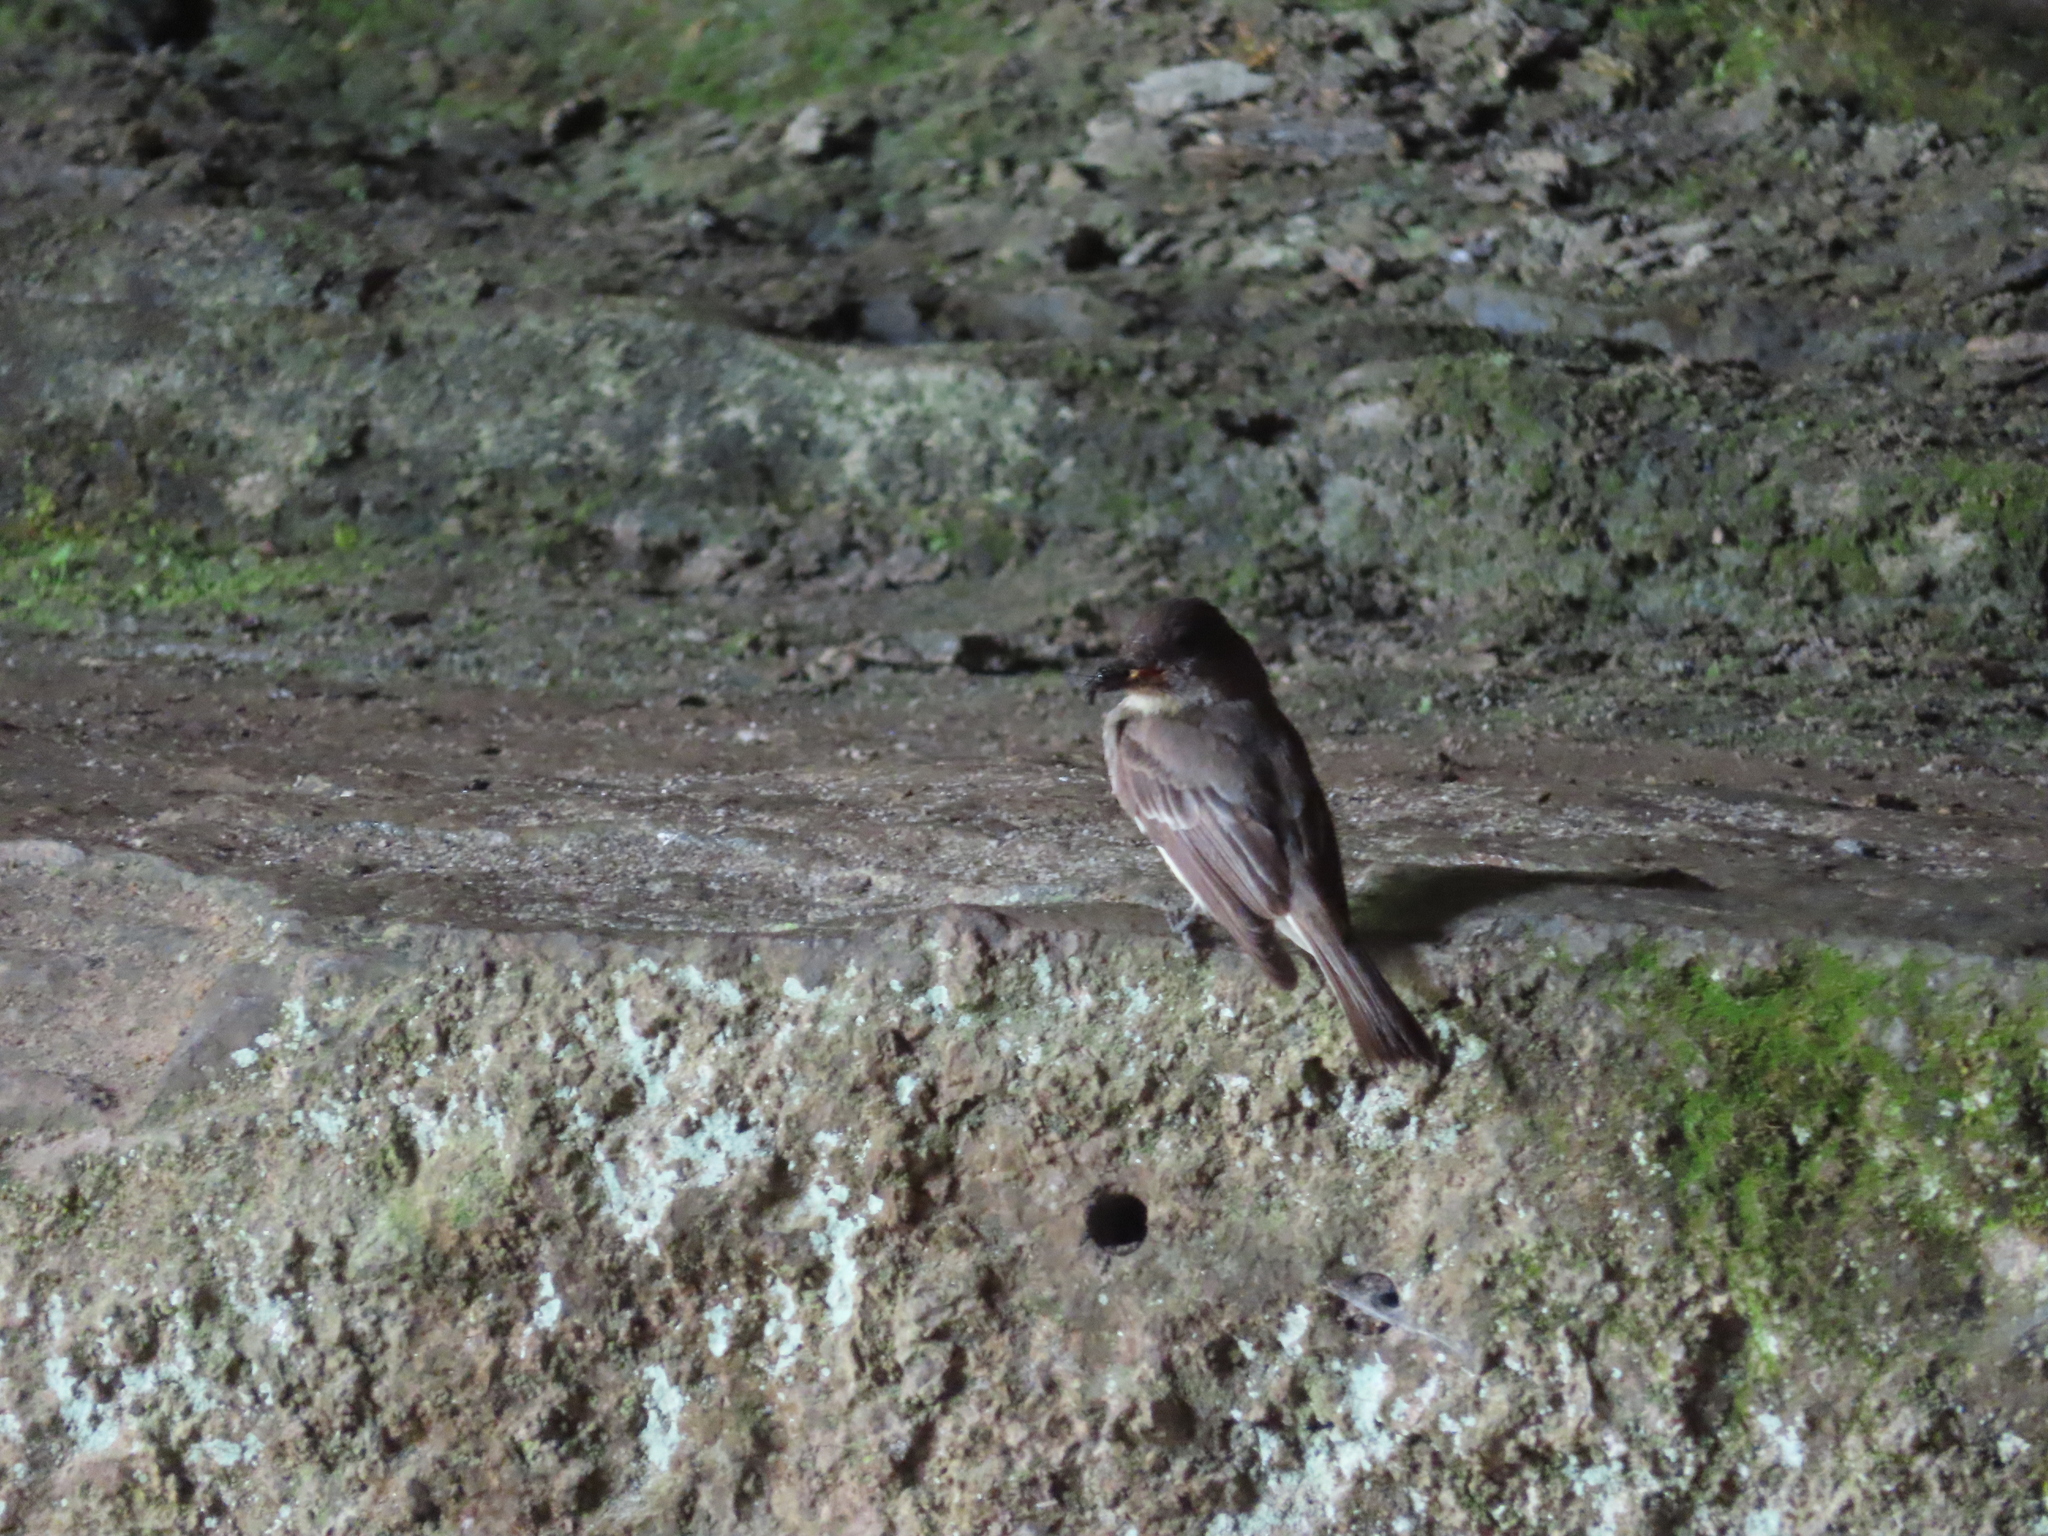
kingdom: Animalia
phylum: Chordata
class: Aves
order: Passeriformes
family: Tyrannidae
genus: Sayornis
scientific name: Sayornis phoebe
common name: Eastern phoebe
